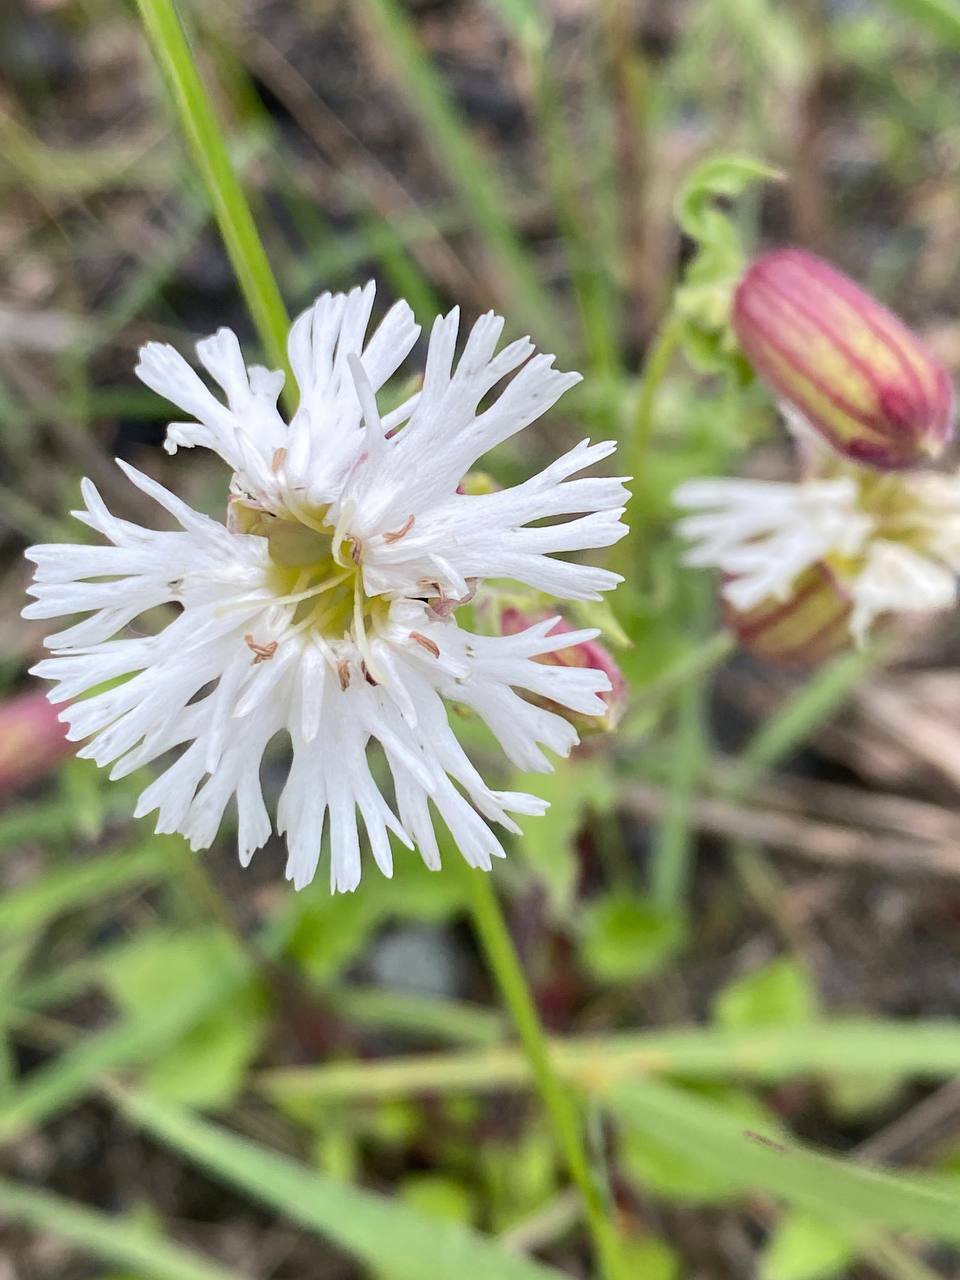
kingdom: Plantae
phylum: Tracheophyta
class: Magnoliopsida
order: Caryophyllales
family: Caryophyllaceae
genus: Silene
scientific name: Silene lacera
